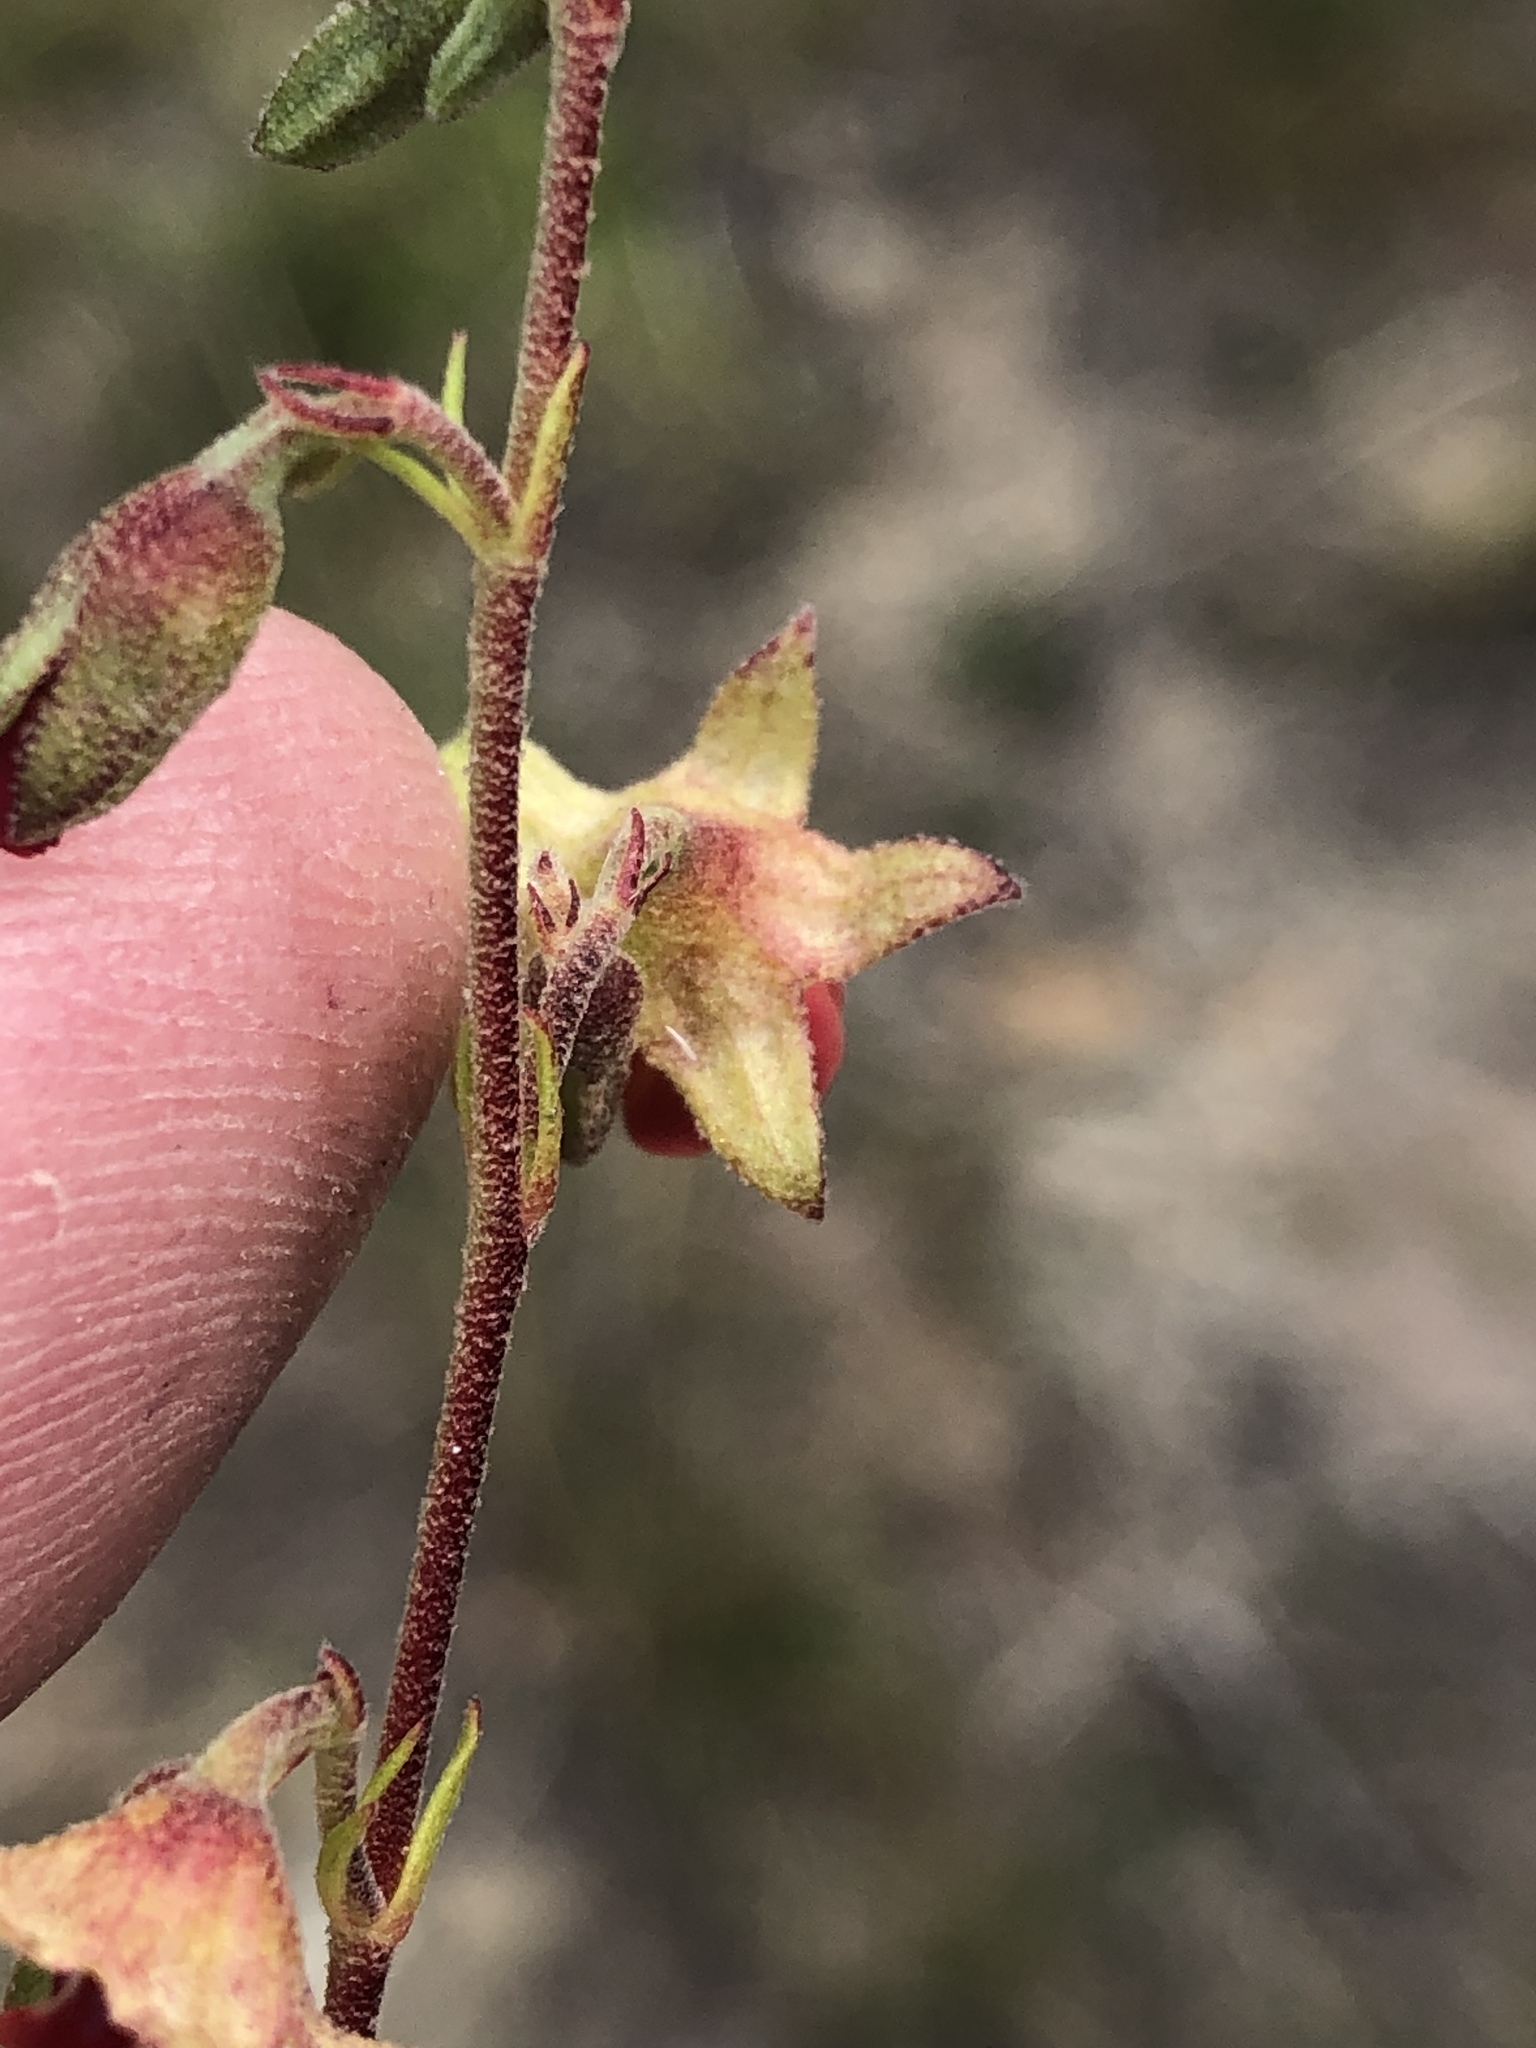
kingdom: Plantae
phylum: Tracheophyta
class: Magnoliopsida
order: Malvales
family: Malvaceae
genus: Hermannia
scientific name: Hermannia flammea
